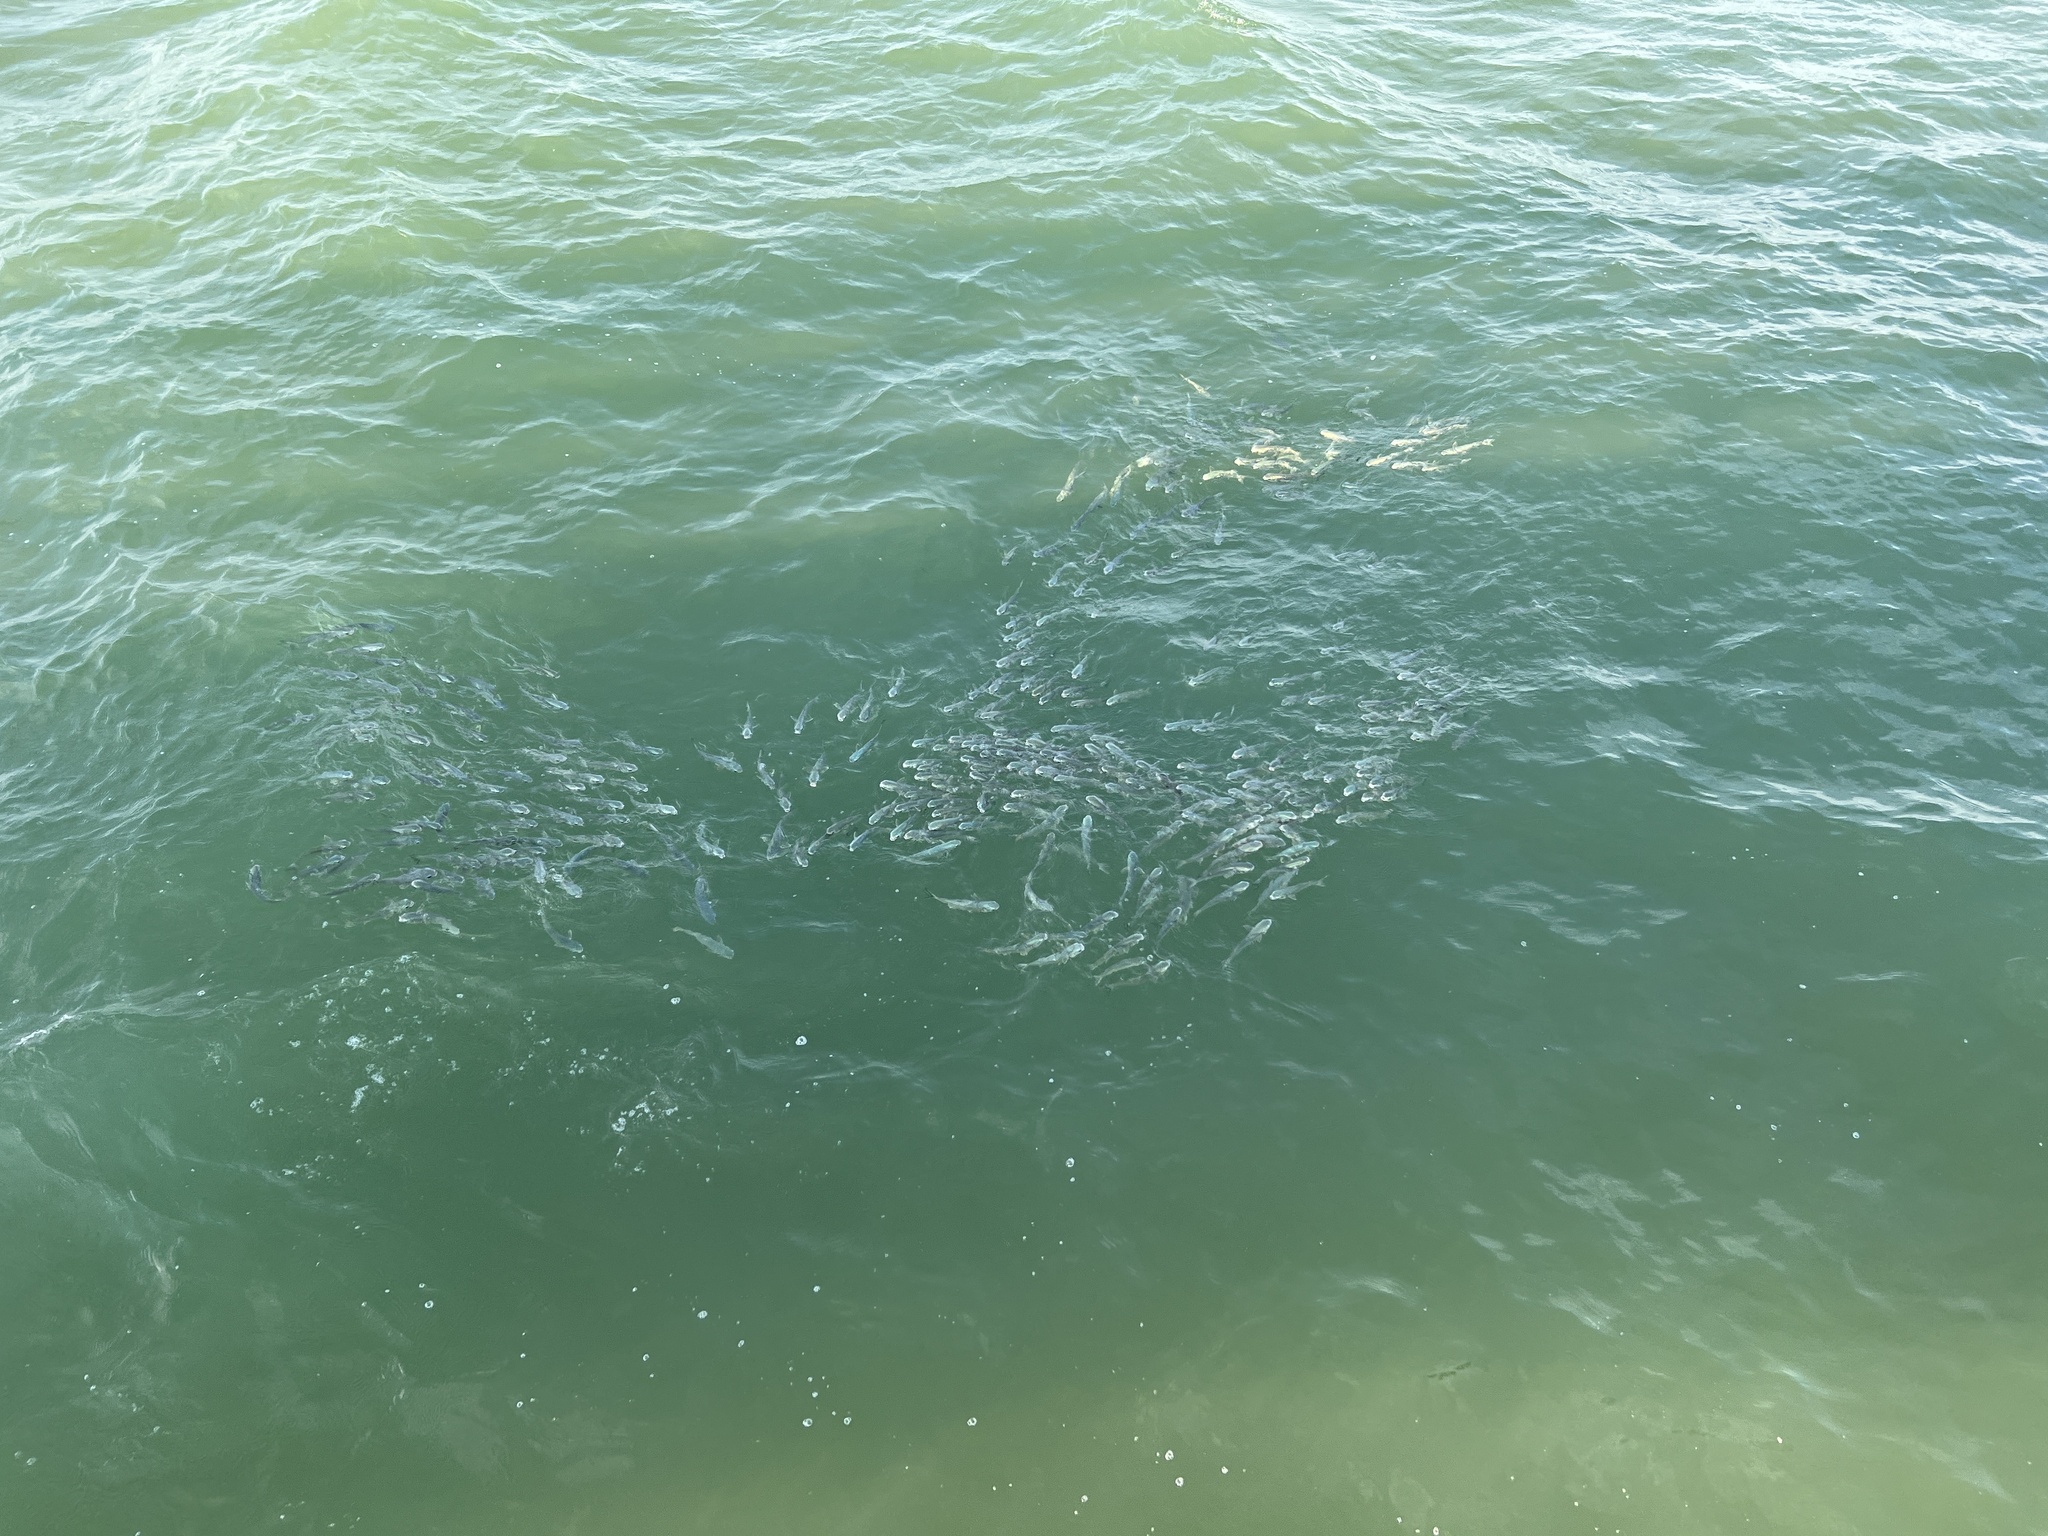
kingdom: Animalia
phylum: Chordata
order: Mugiliformes
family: Mugilidae
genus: Mugil
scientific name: Mugil cephalus
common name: Grey mullet
